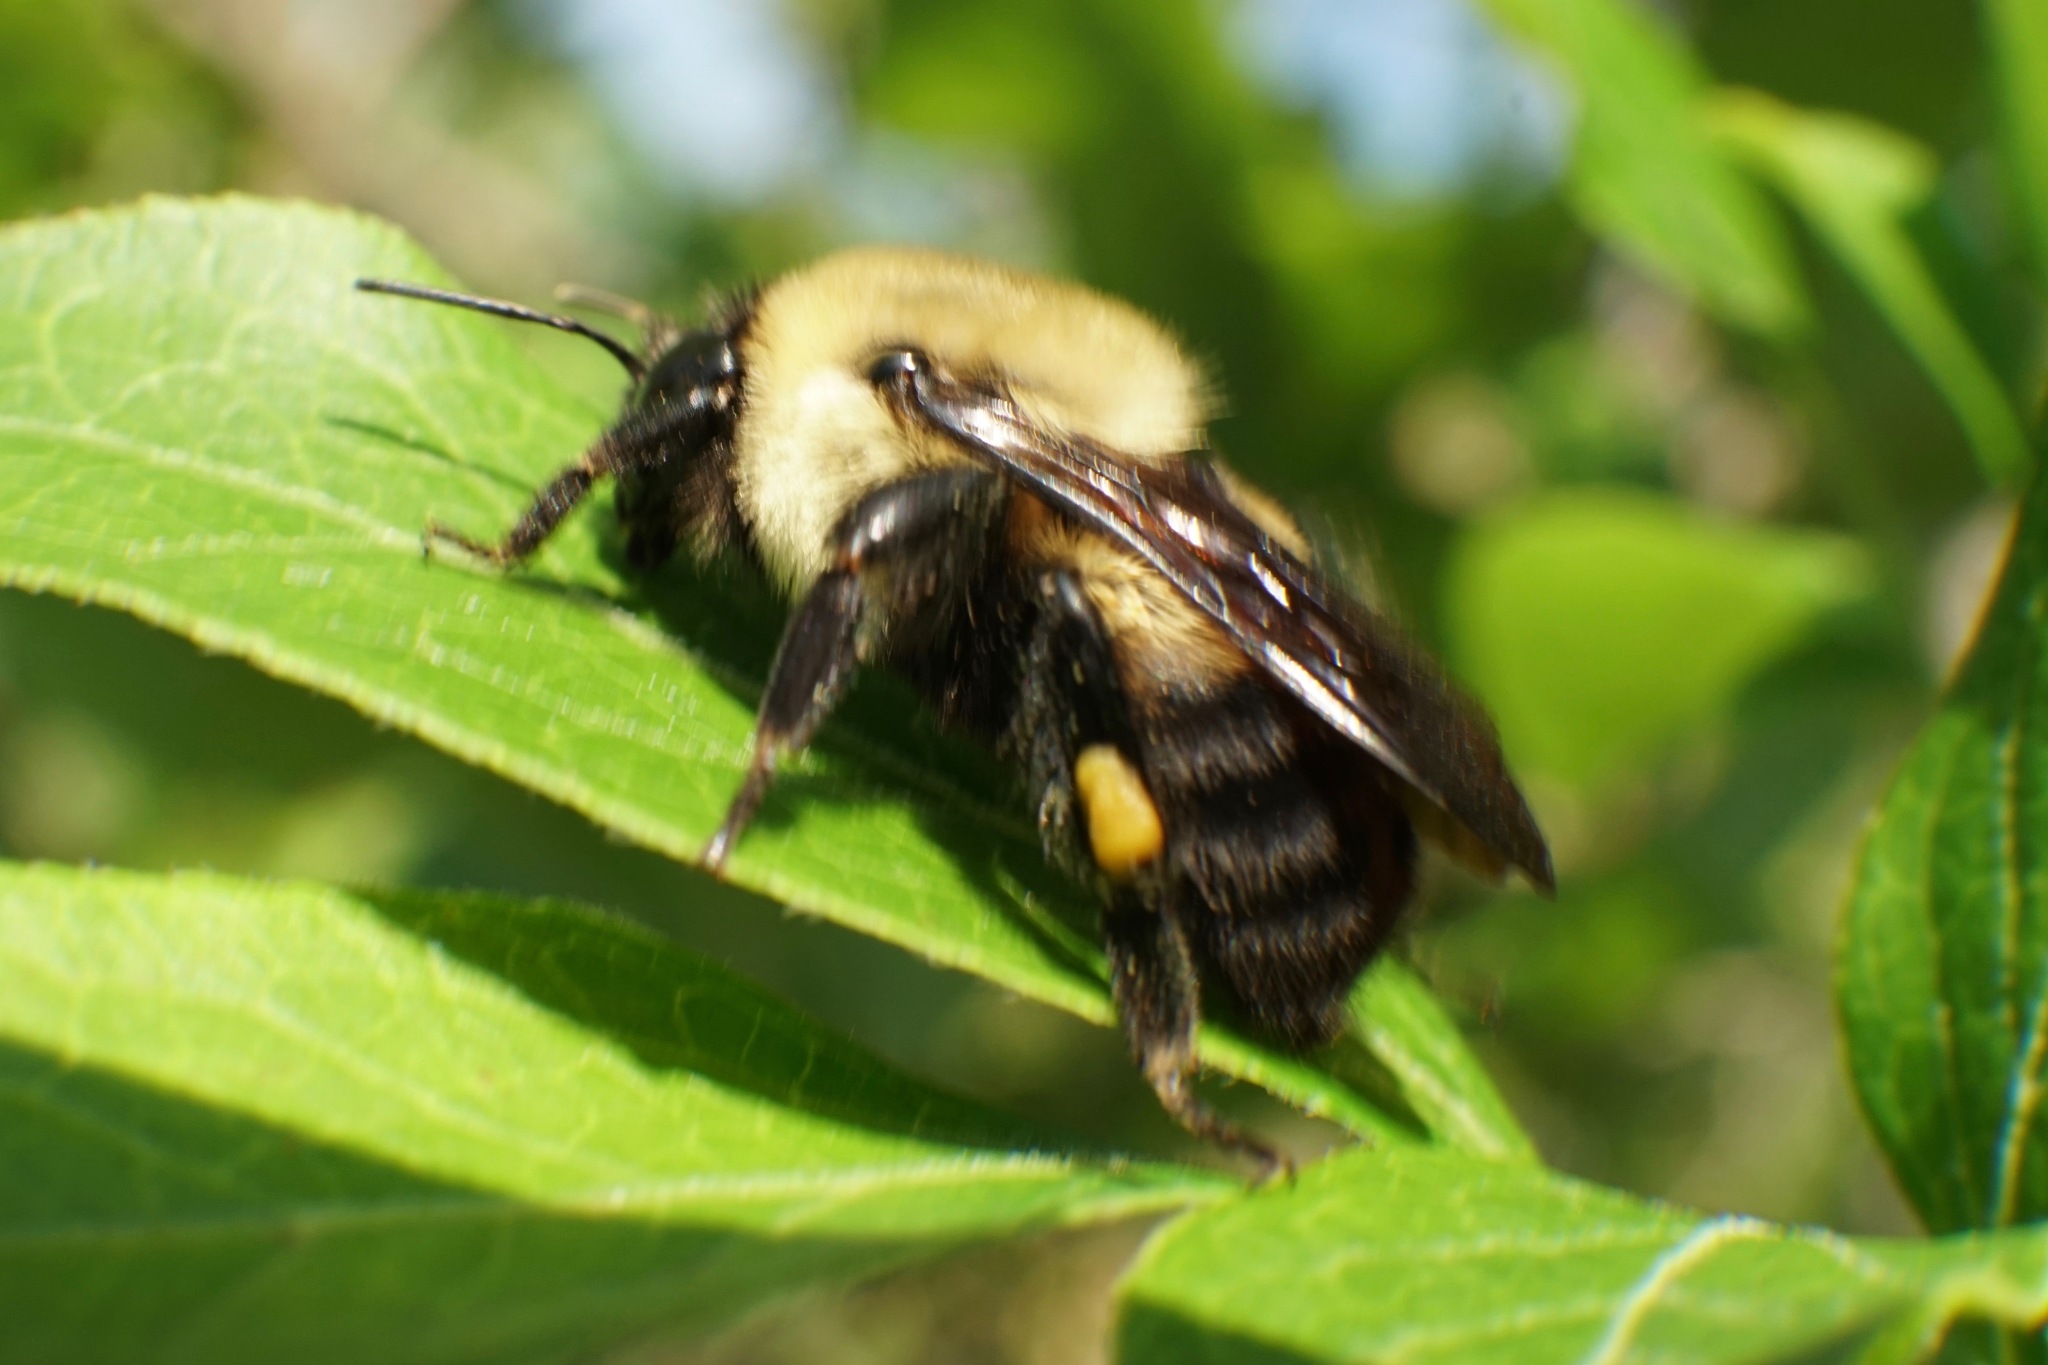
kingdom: Animalia
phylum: Arthropoda
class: Insecta
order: Hymenoptera
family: Apidae
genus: Bombus
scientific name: Bombus griseocollis
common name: Brown-belted bumble bee
